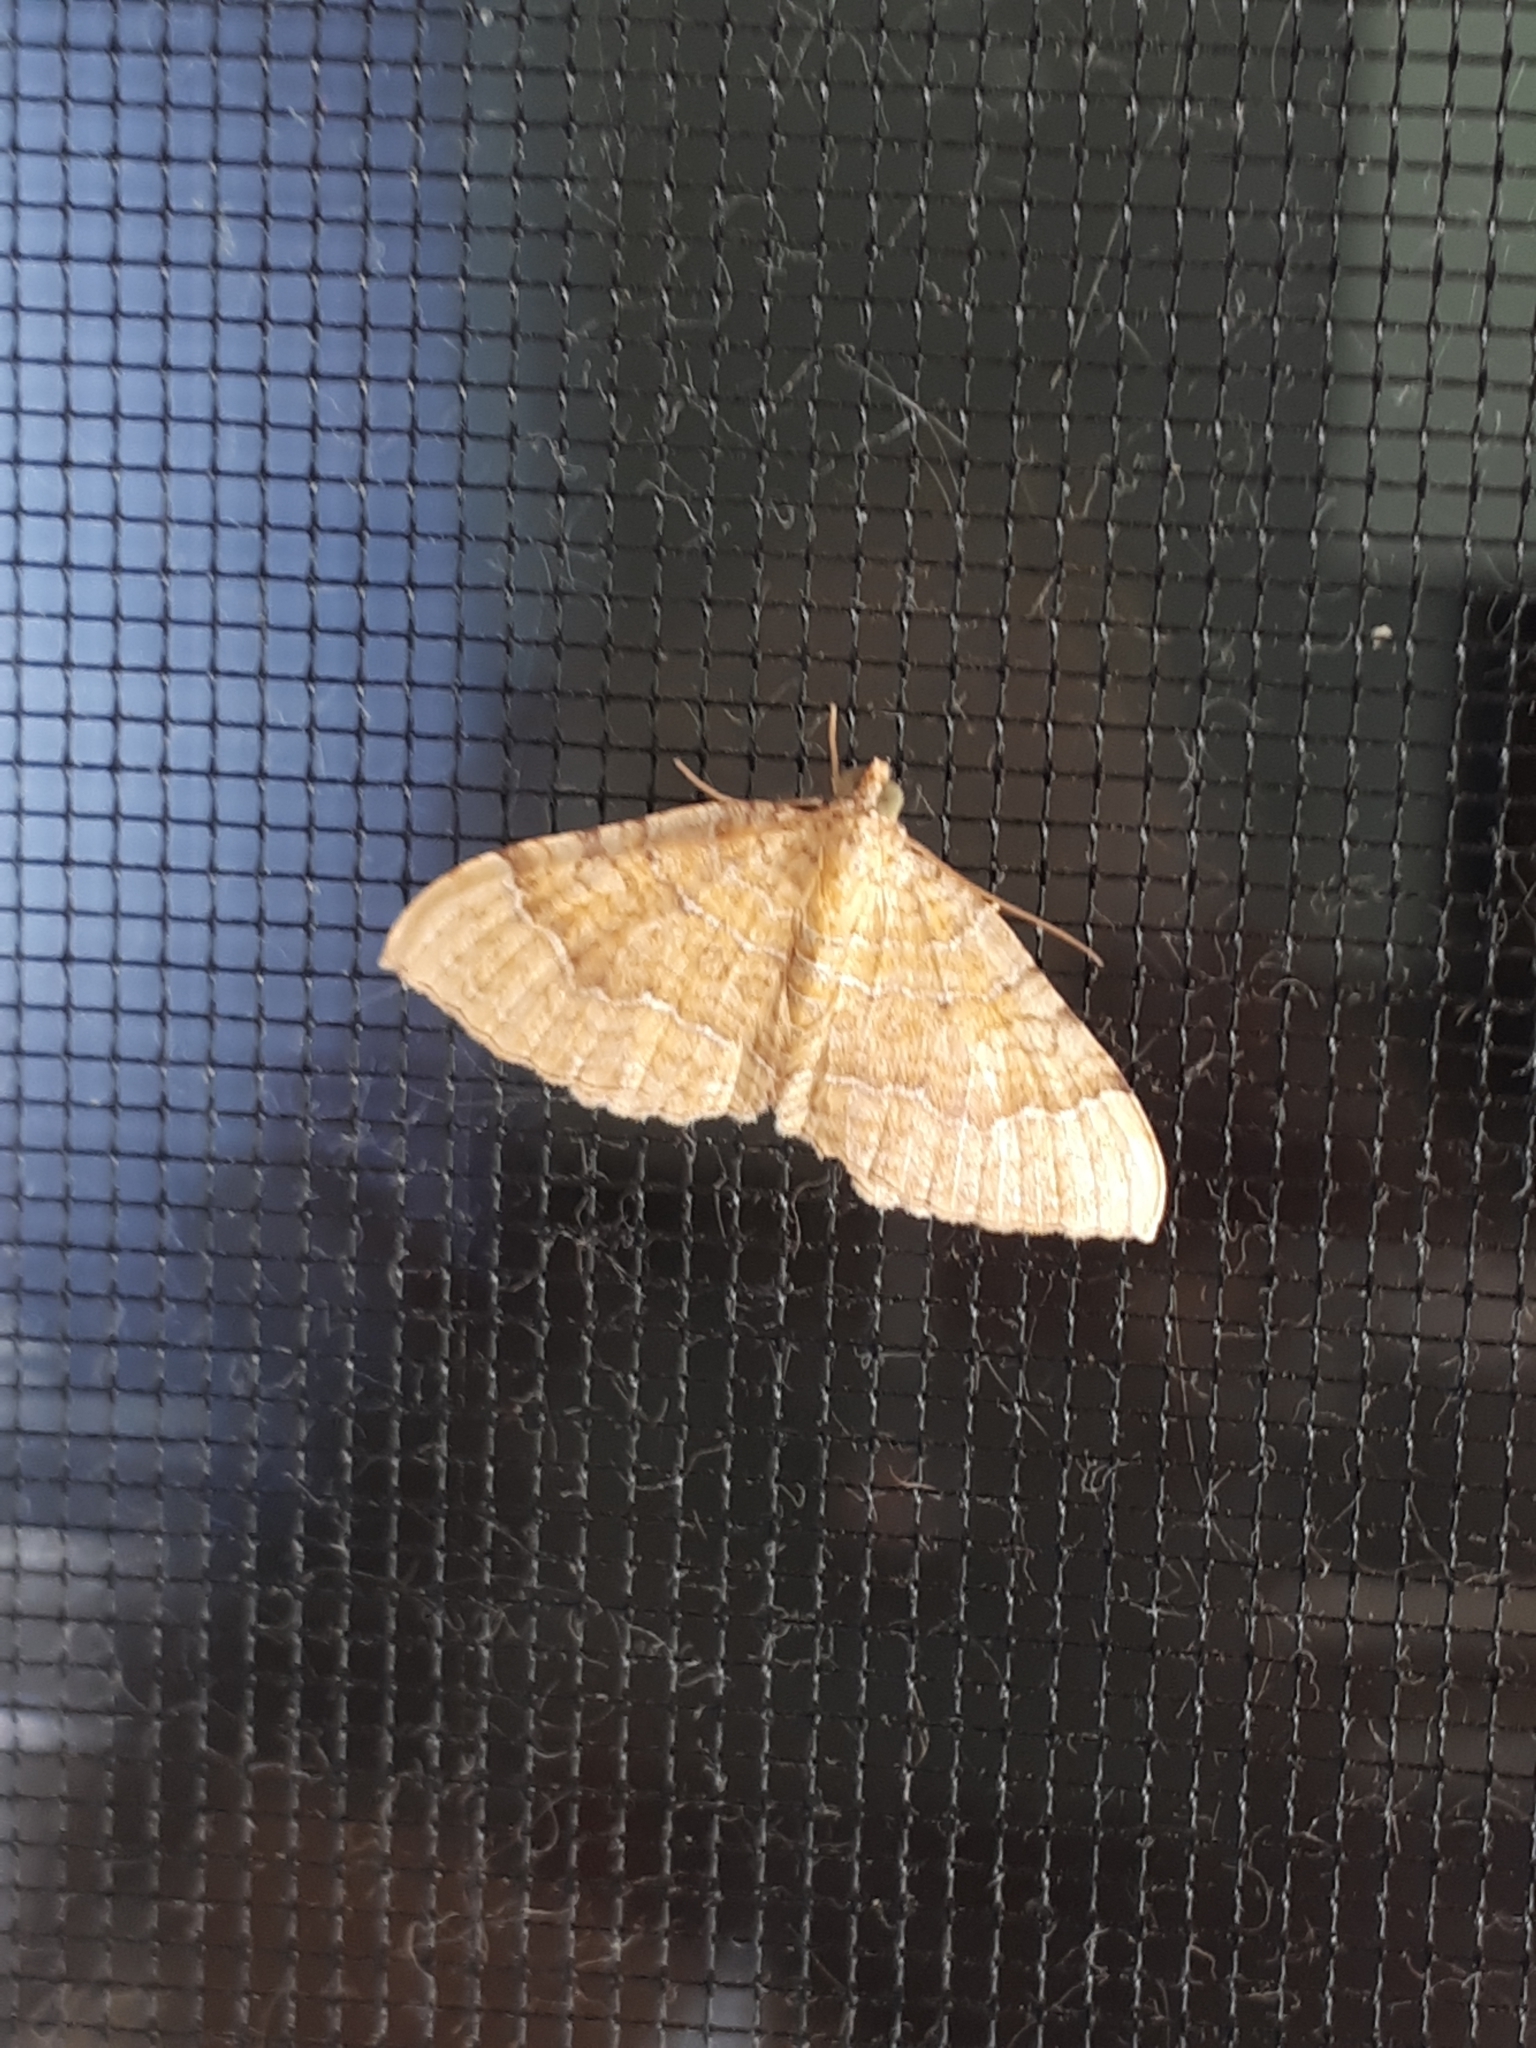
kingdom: Animalia
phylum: Arthropoda
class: Insecta
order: Lepidoptera
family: Geometridae
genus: Camptogramma
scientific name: Camptogramma bilineata
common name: Yellow shell
